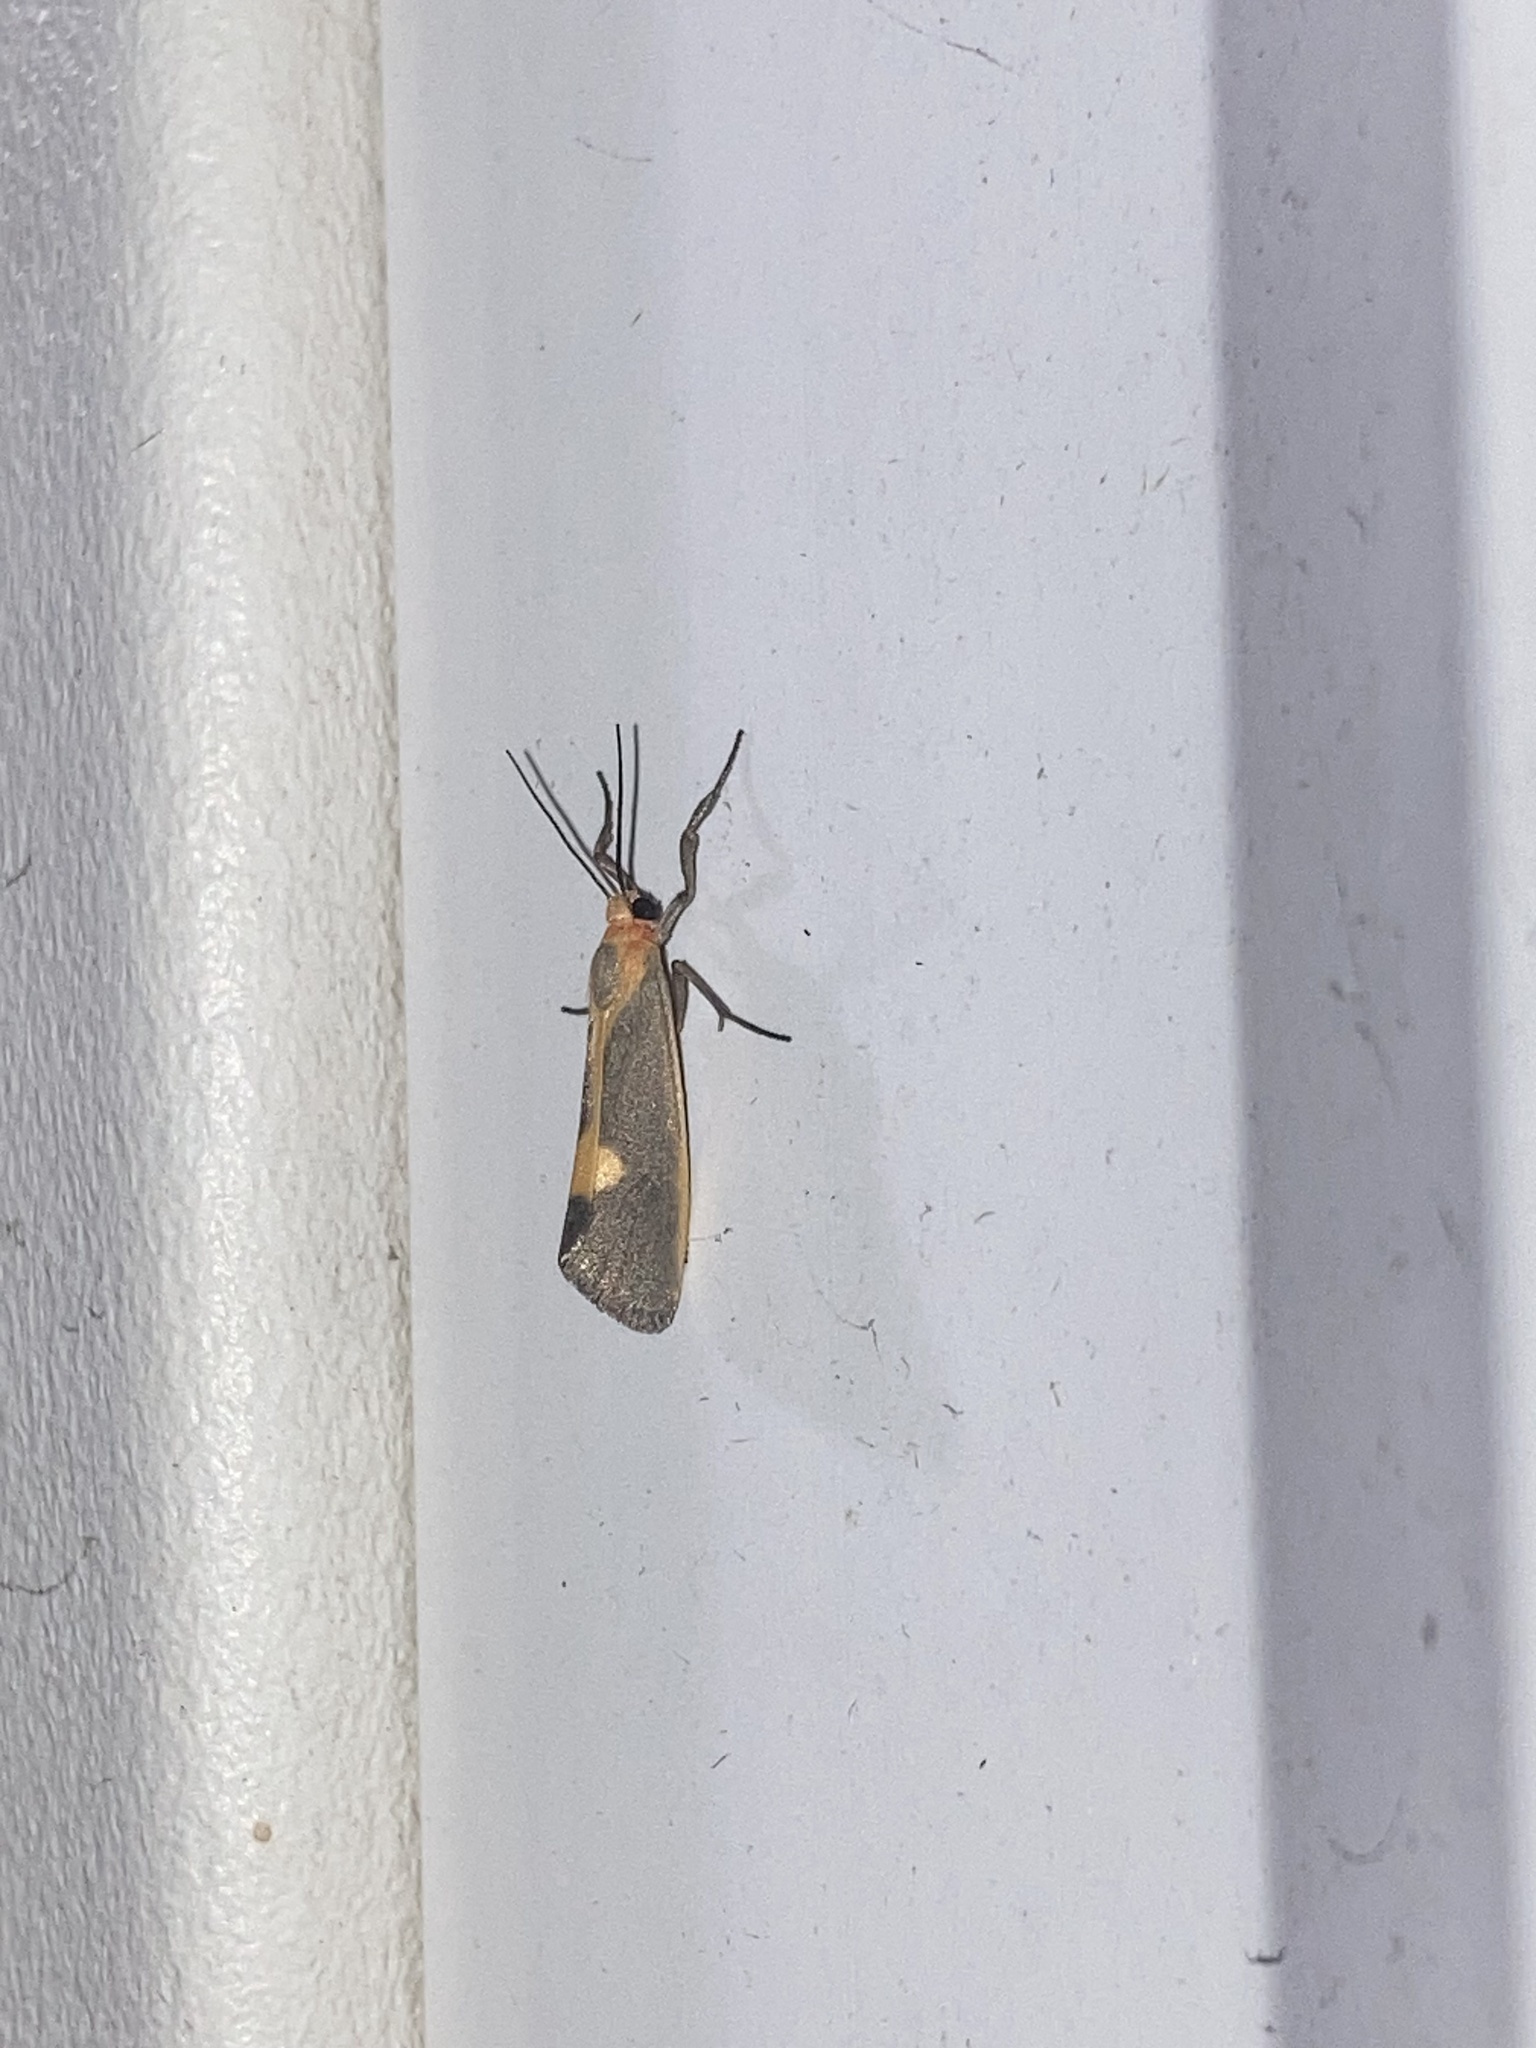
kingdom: Animalia
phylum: Arthropoda
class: Insecta
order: Lepidoptera
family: Erebidae
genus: Cisthene
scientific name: Cisthene plumbea
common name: Lead colored lichen moth
